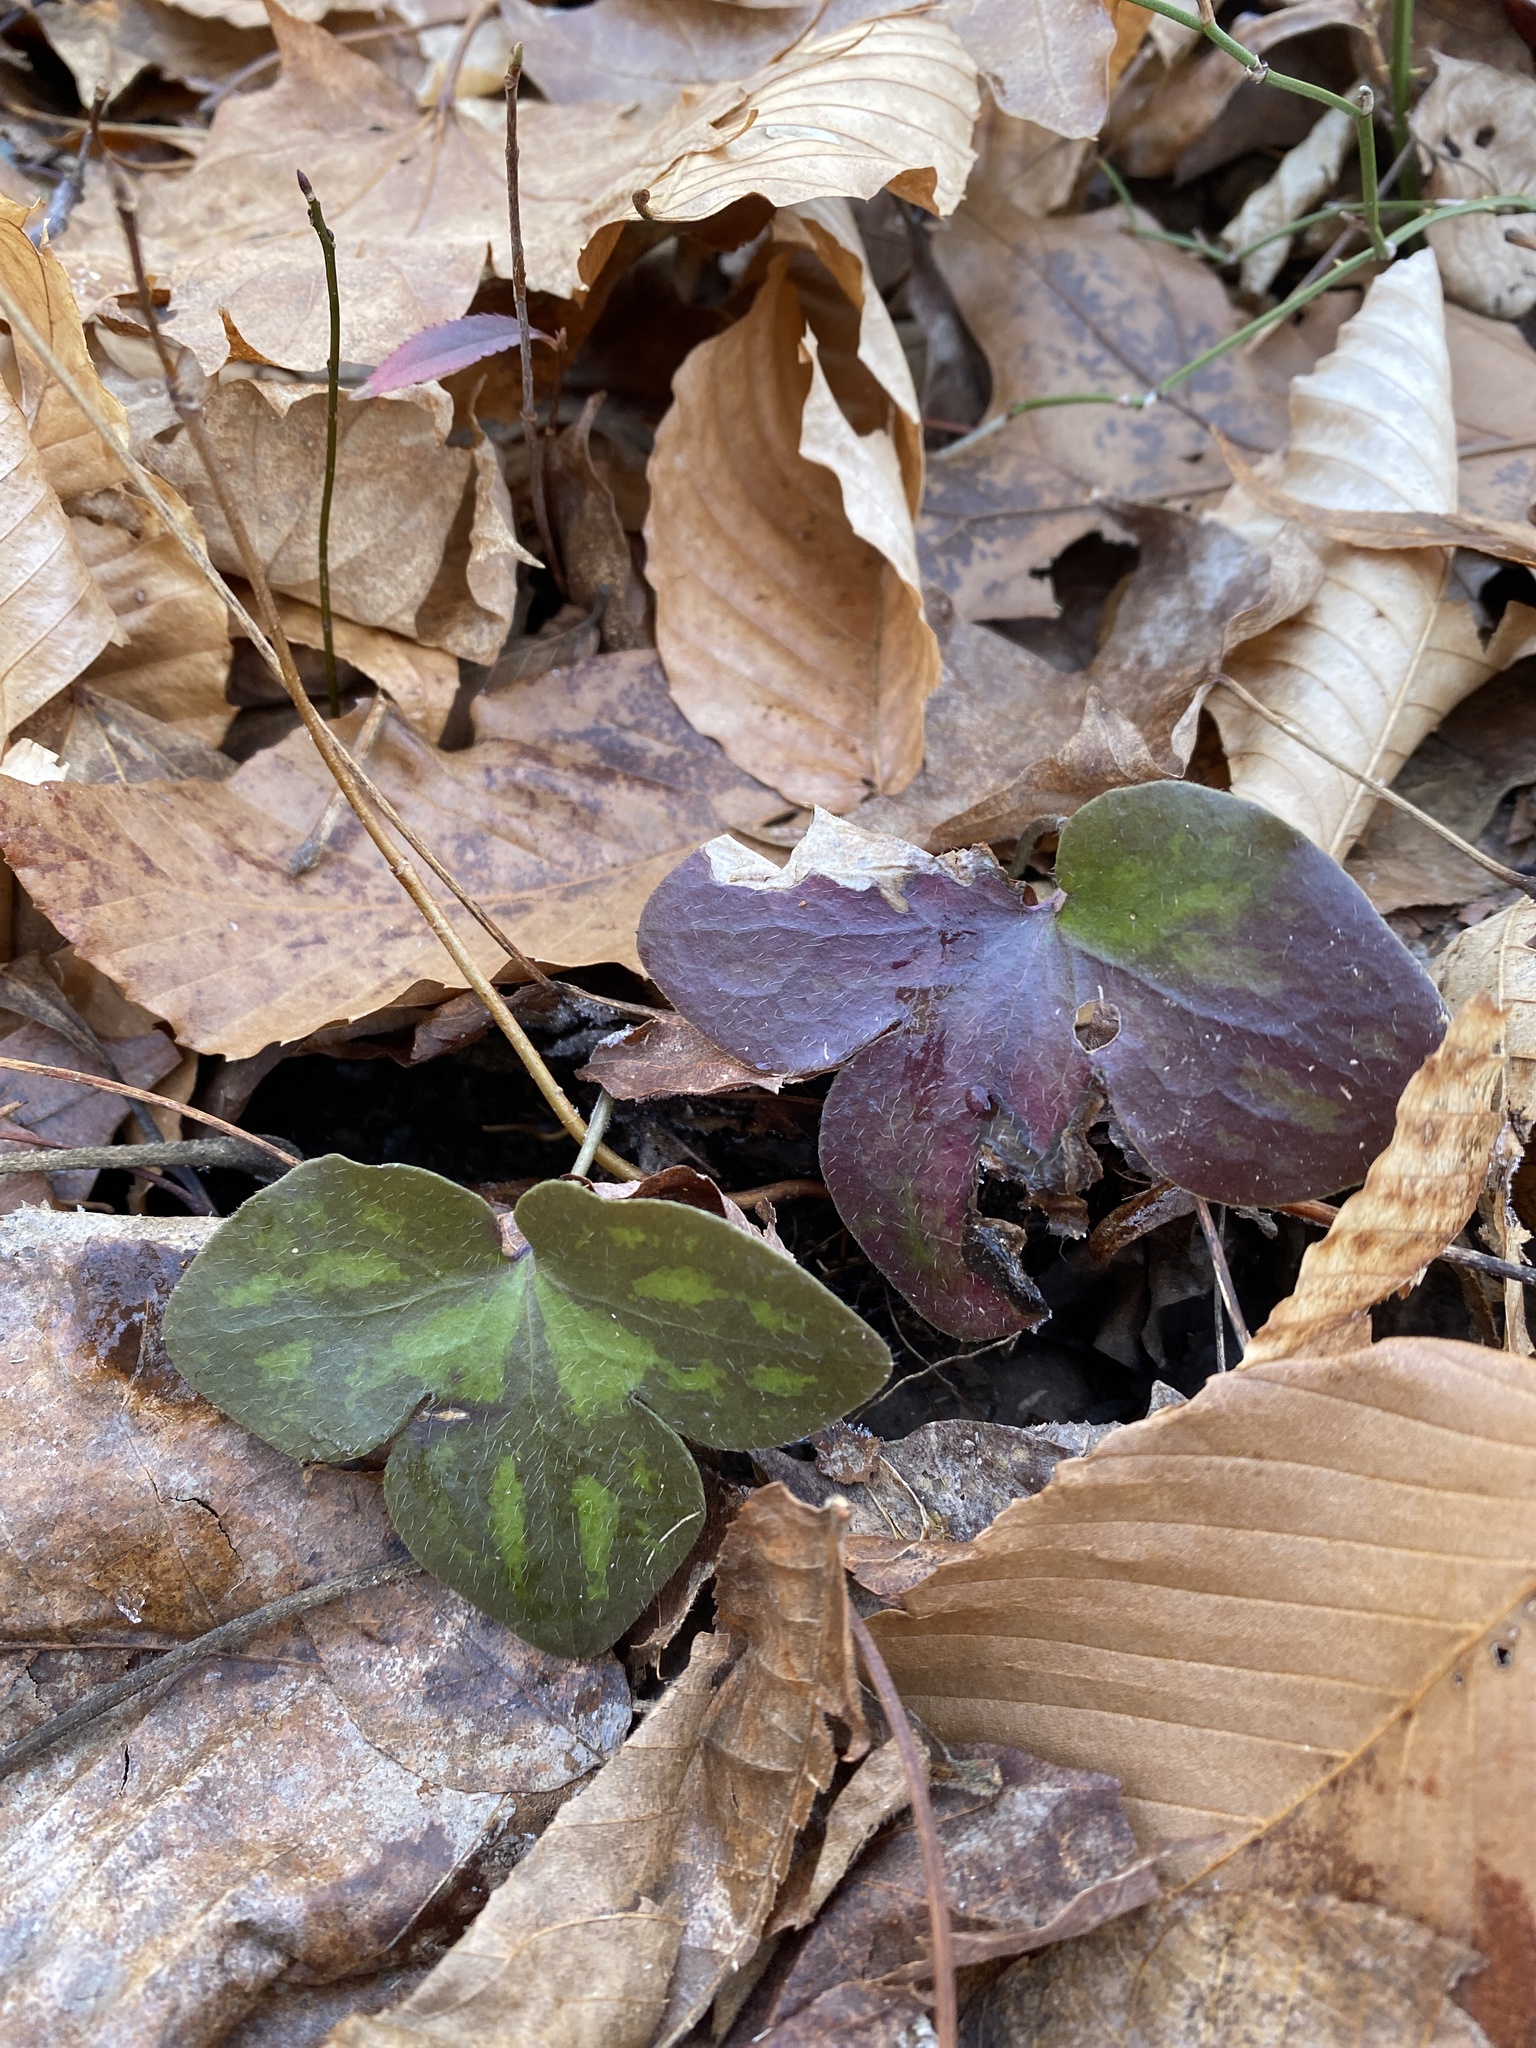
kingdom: Plantae
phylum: Tracheophyta
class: Magnoliopsida
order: Ranunculales
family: Ranunculaceae
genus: Hepatica
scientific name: Hepatica americana
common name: American hepatica
